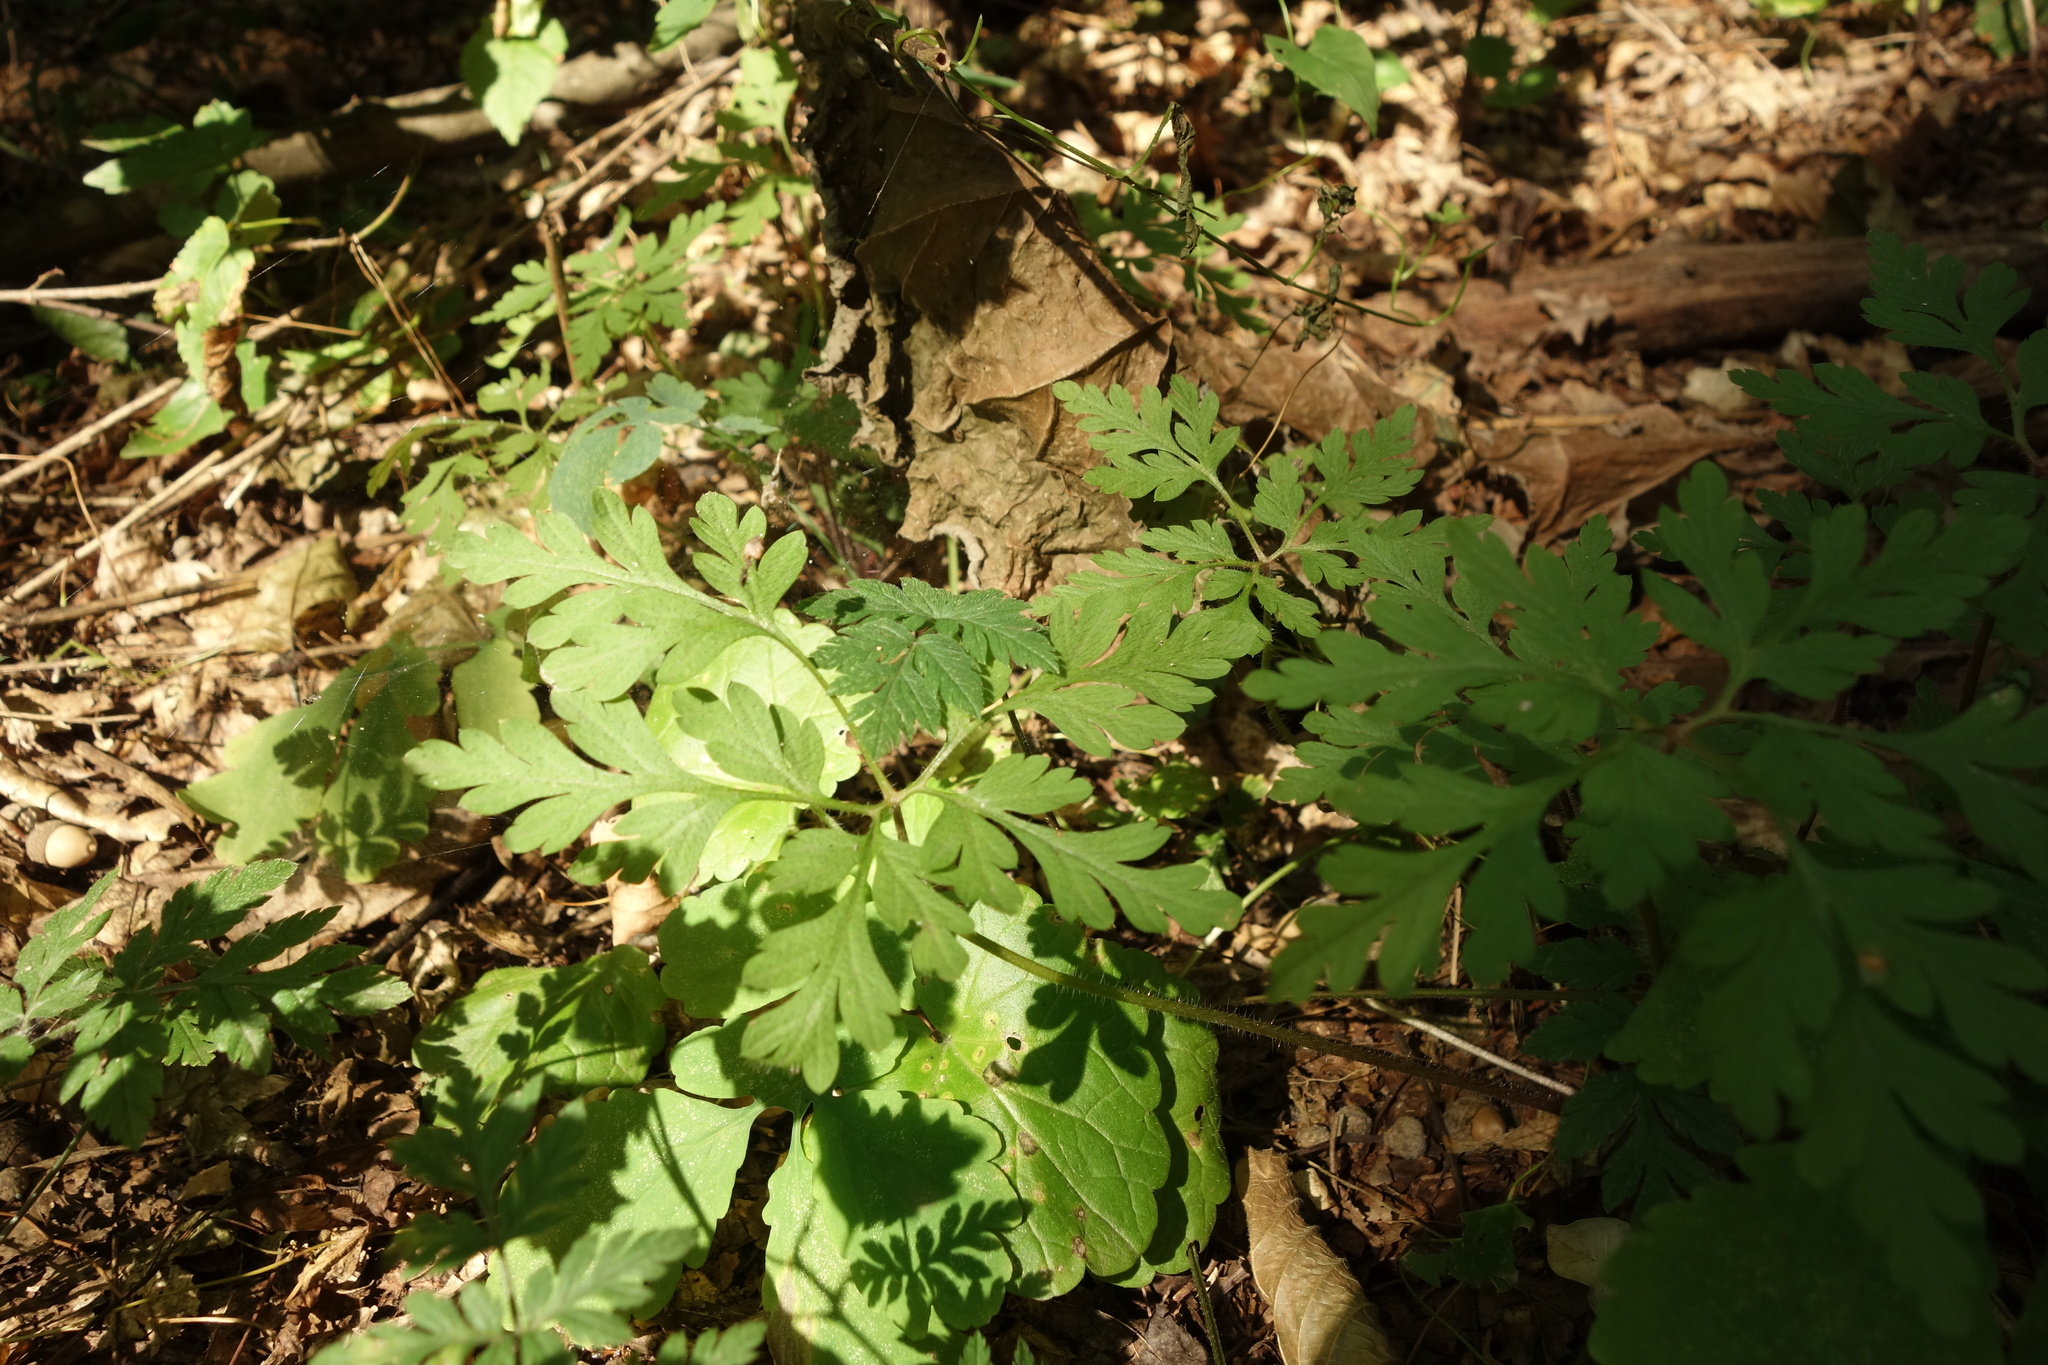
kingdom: Plantae
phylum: Tracheophyta
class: Magnoliopsida
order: Geraniales
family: Geraniaceae
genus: Geranium
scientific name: Geranium robertianum
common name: Herb-robert
